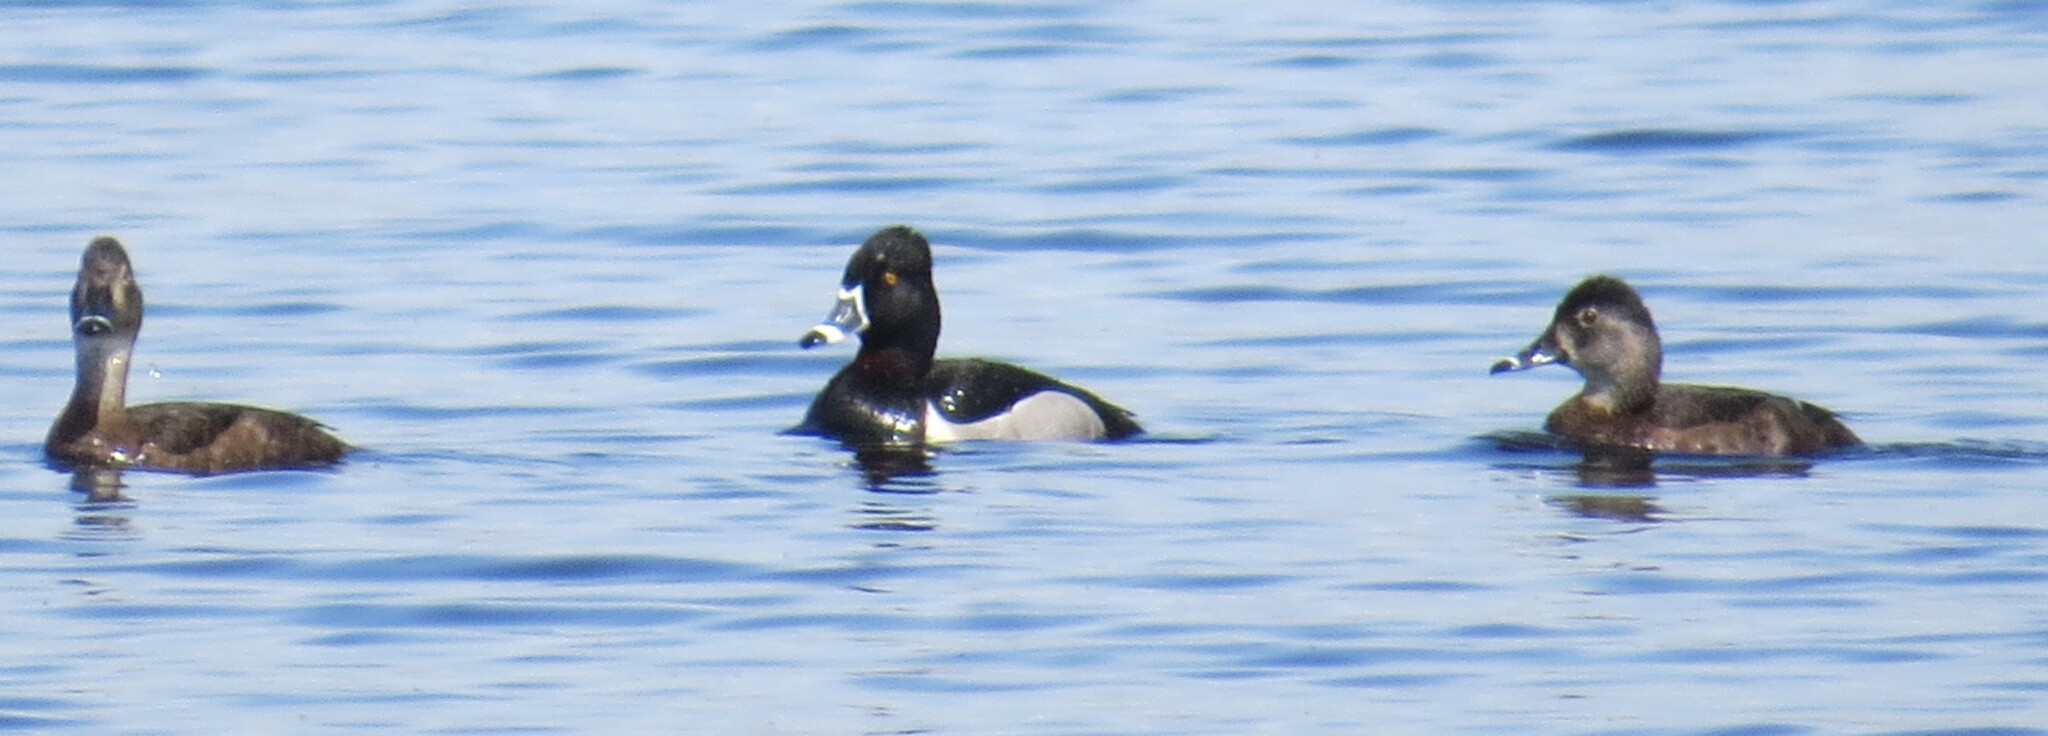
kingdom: Animalia
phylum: Chordata
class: Aves
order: Anseriformes
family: Anatidae
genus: Aythya
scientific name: Aythya collaris
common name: Ring-necked duck
